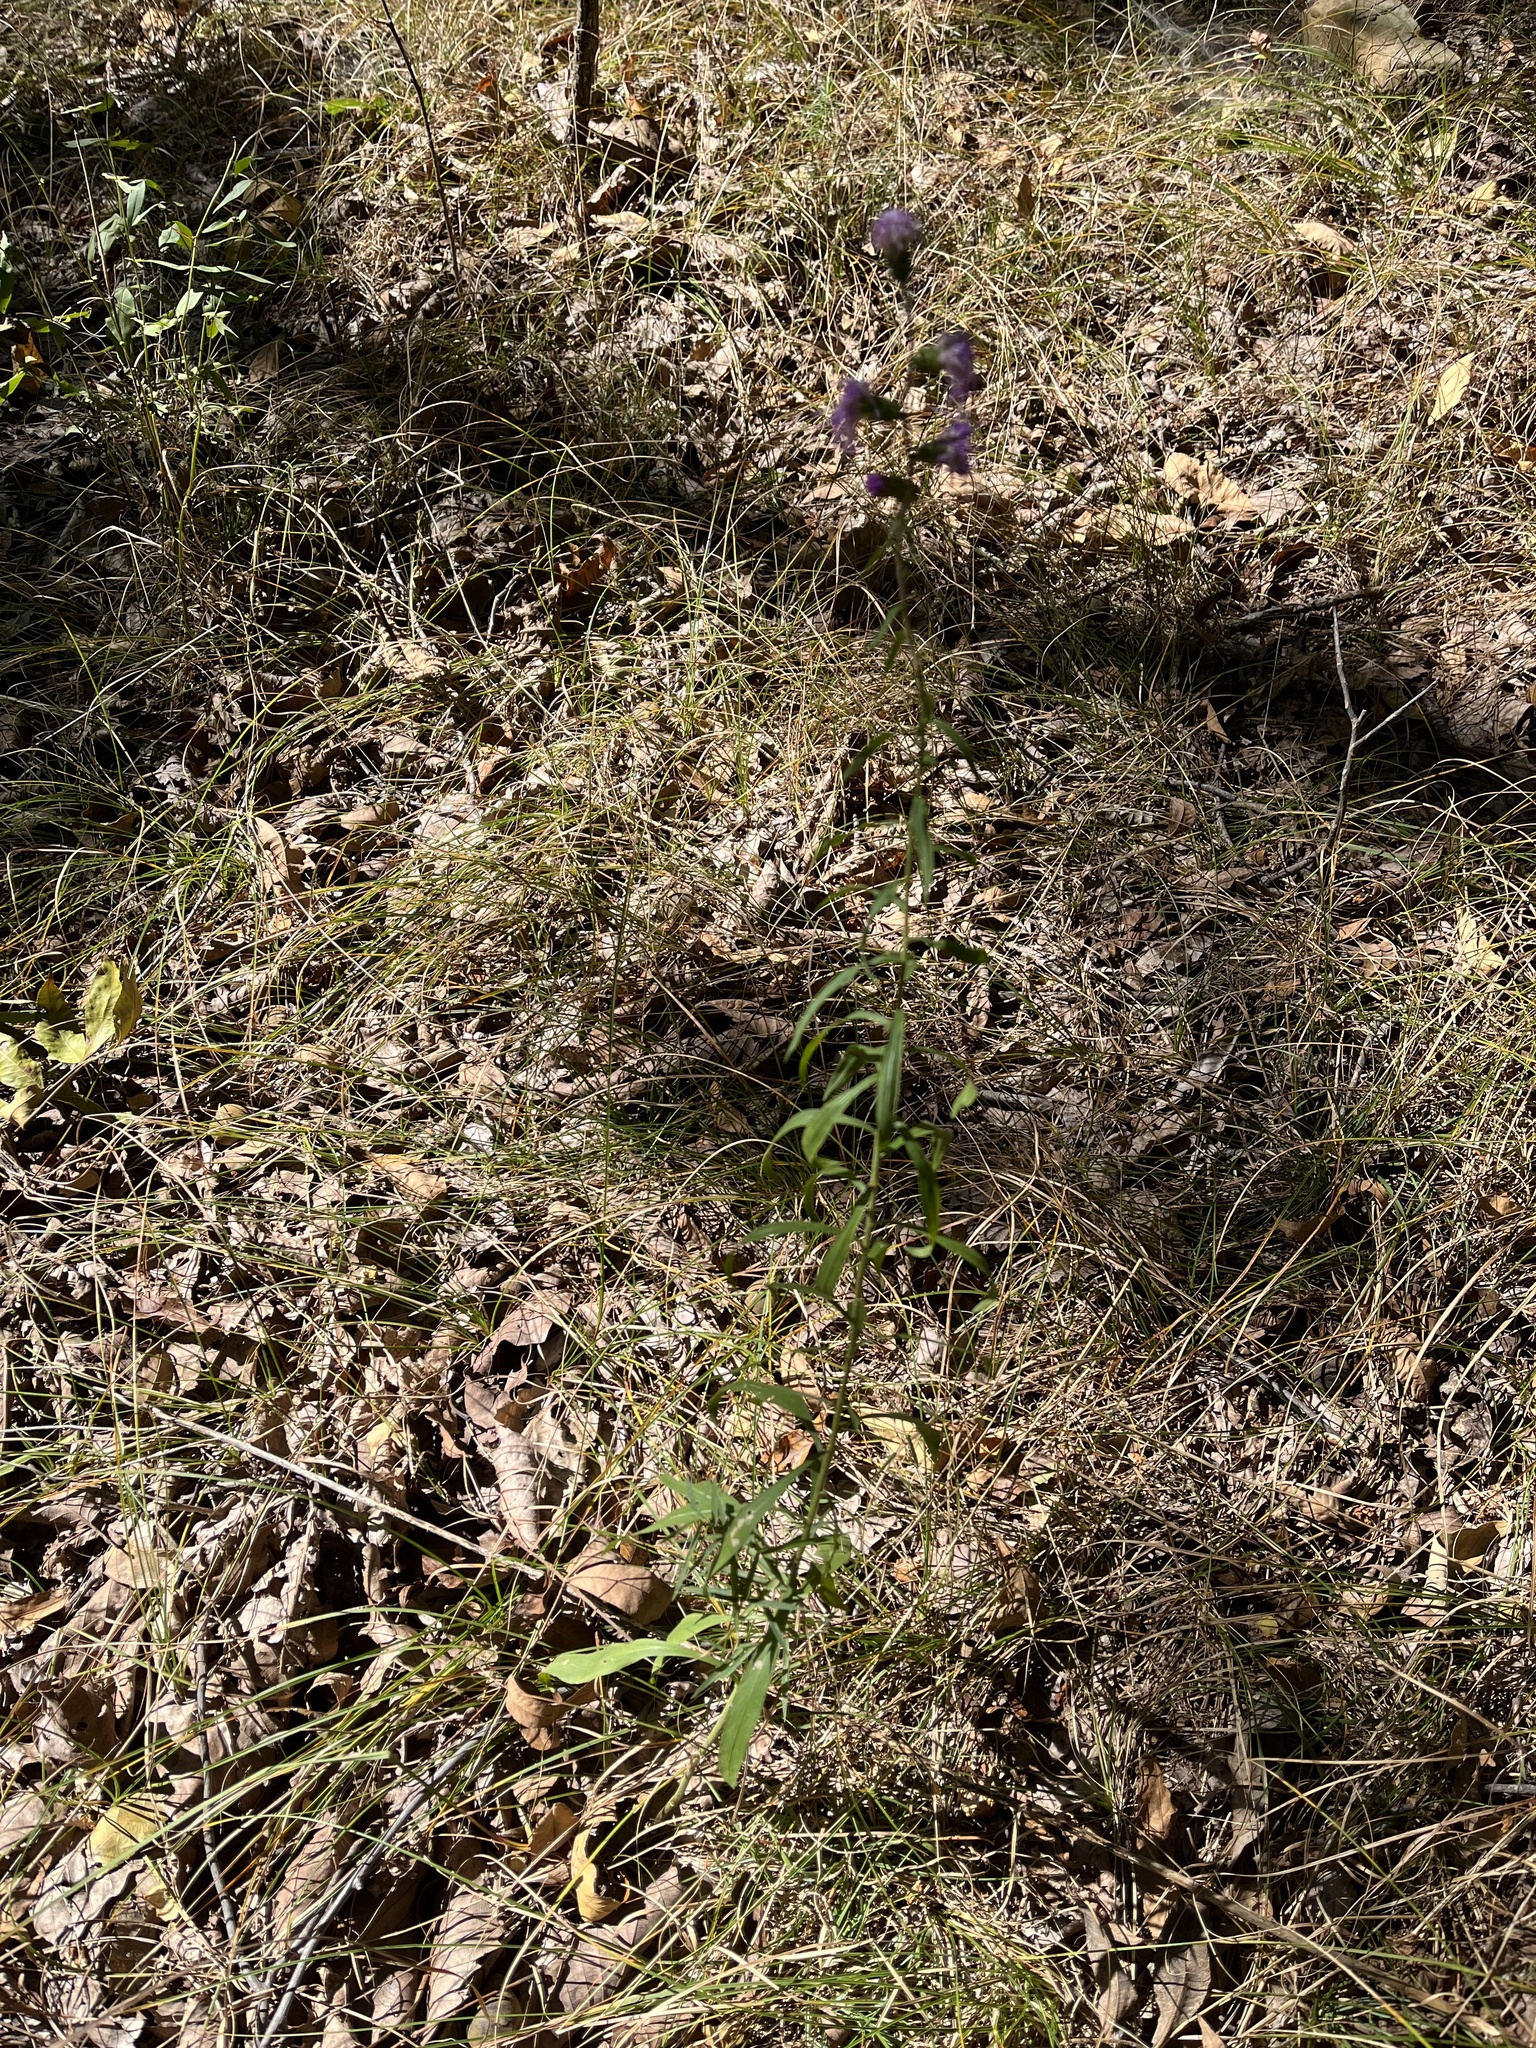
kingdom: Plantae
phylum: Tracheophyta
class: Magnoliopsida
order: Asterales
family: Asteraceae
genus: Liatris
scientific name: Liatris squarrulosa
